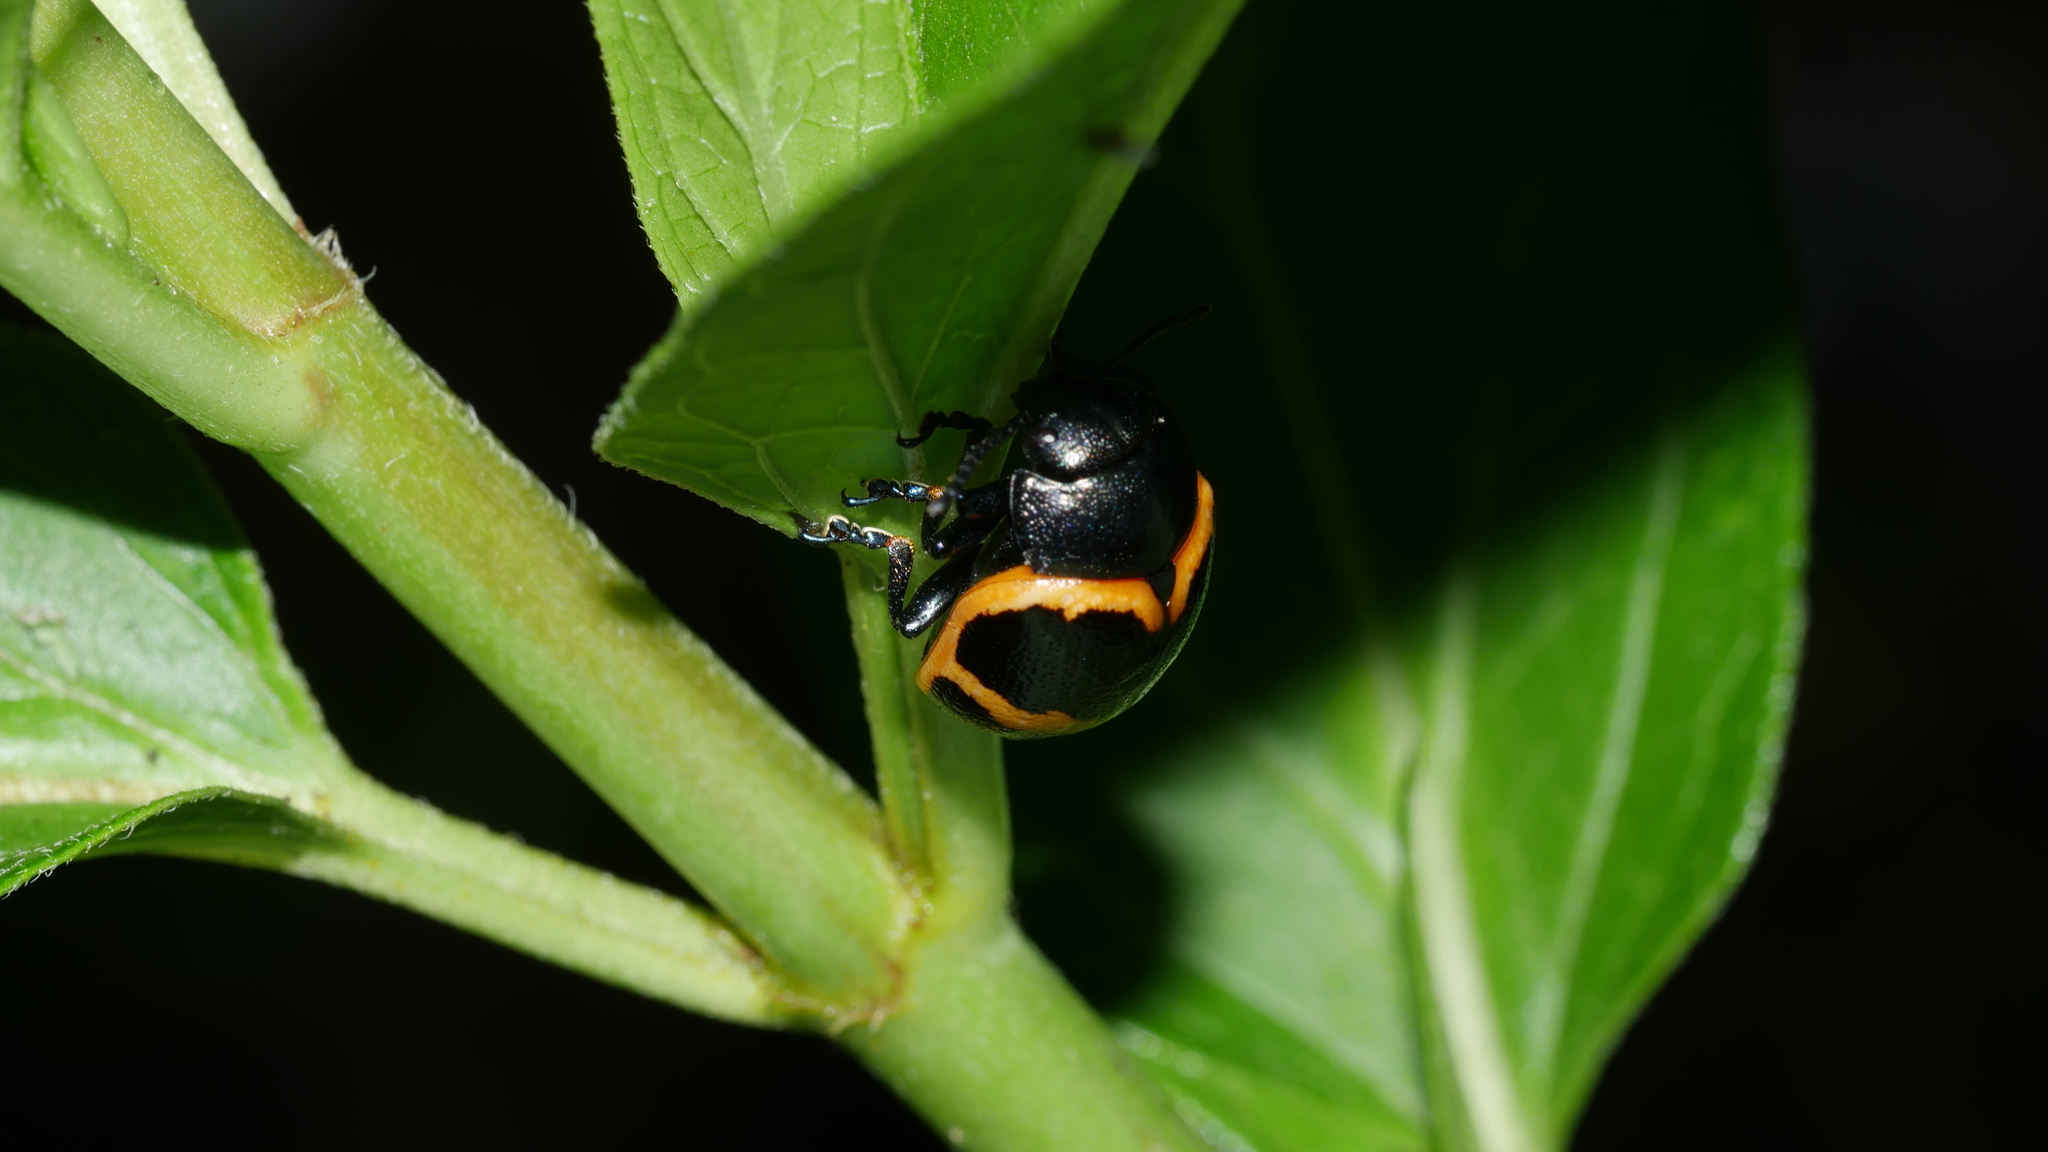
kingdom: Animalia
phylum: Arthropoda
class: Insecta
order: Coleoptera
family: Chrysomelidae
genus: Labidomera
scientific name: Labidomera clivicollis
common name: Swamp milkweed leaf beetle
